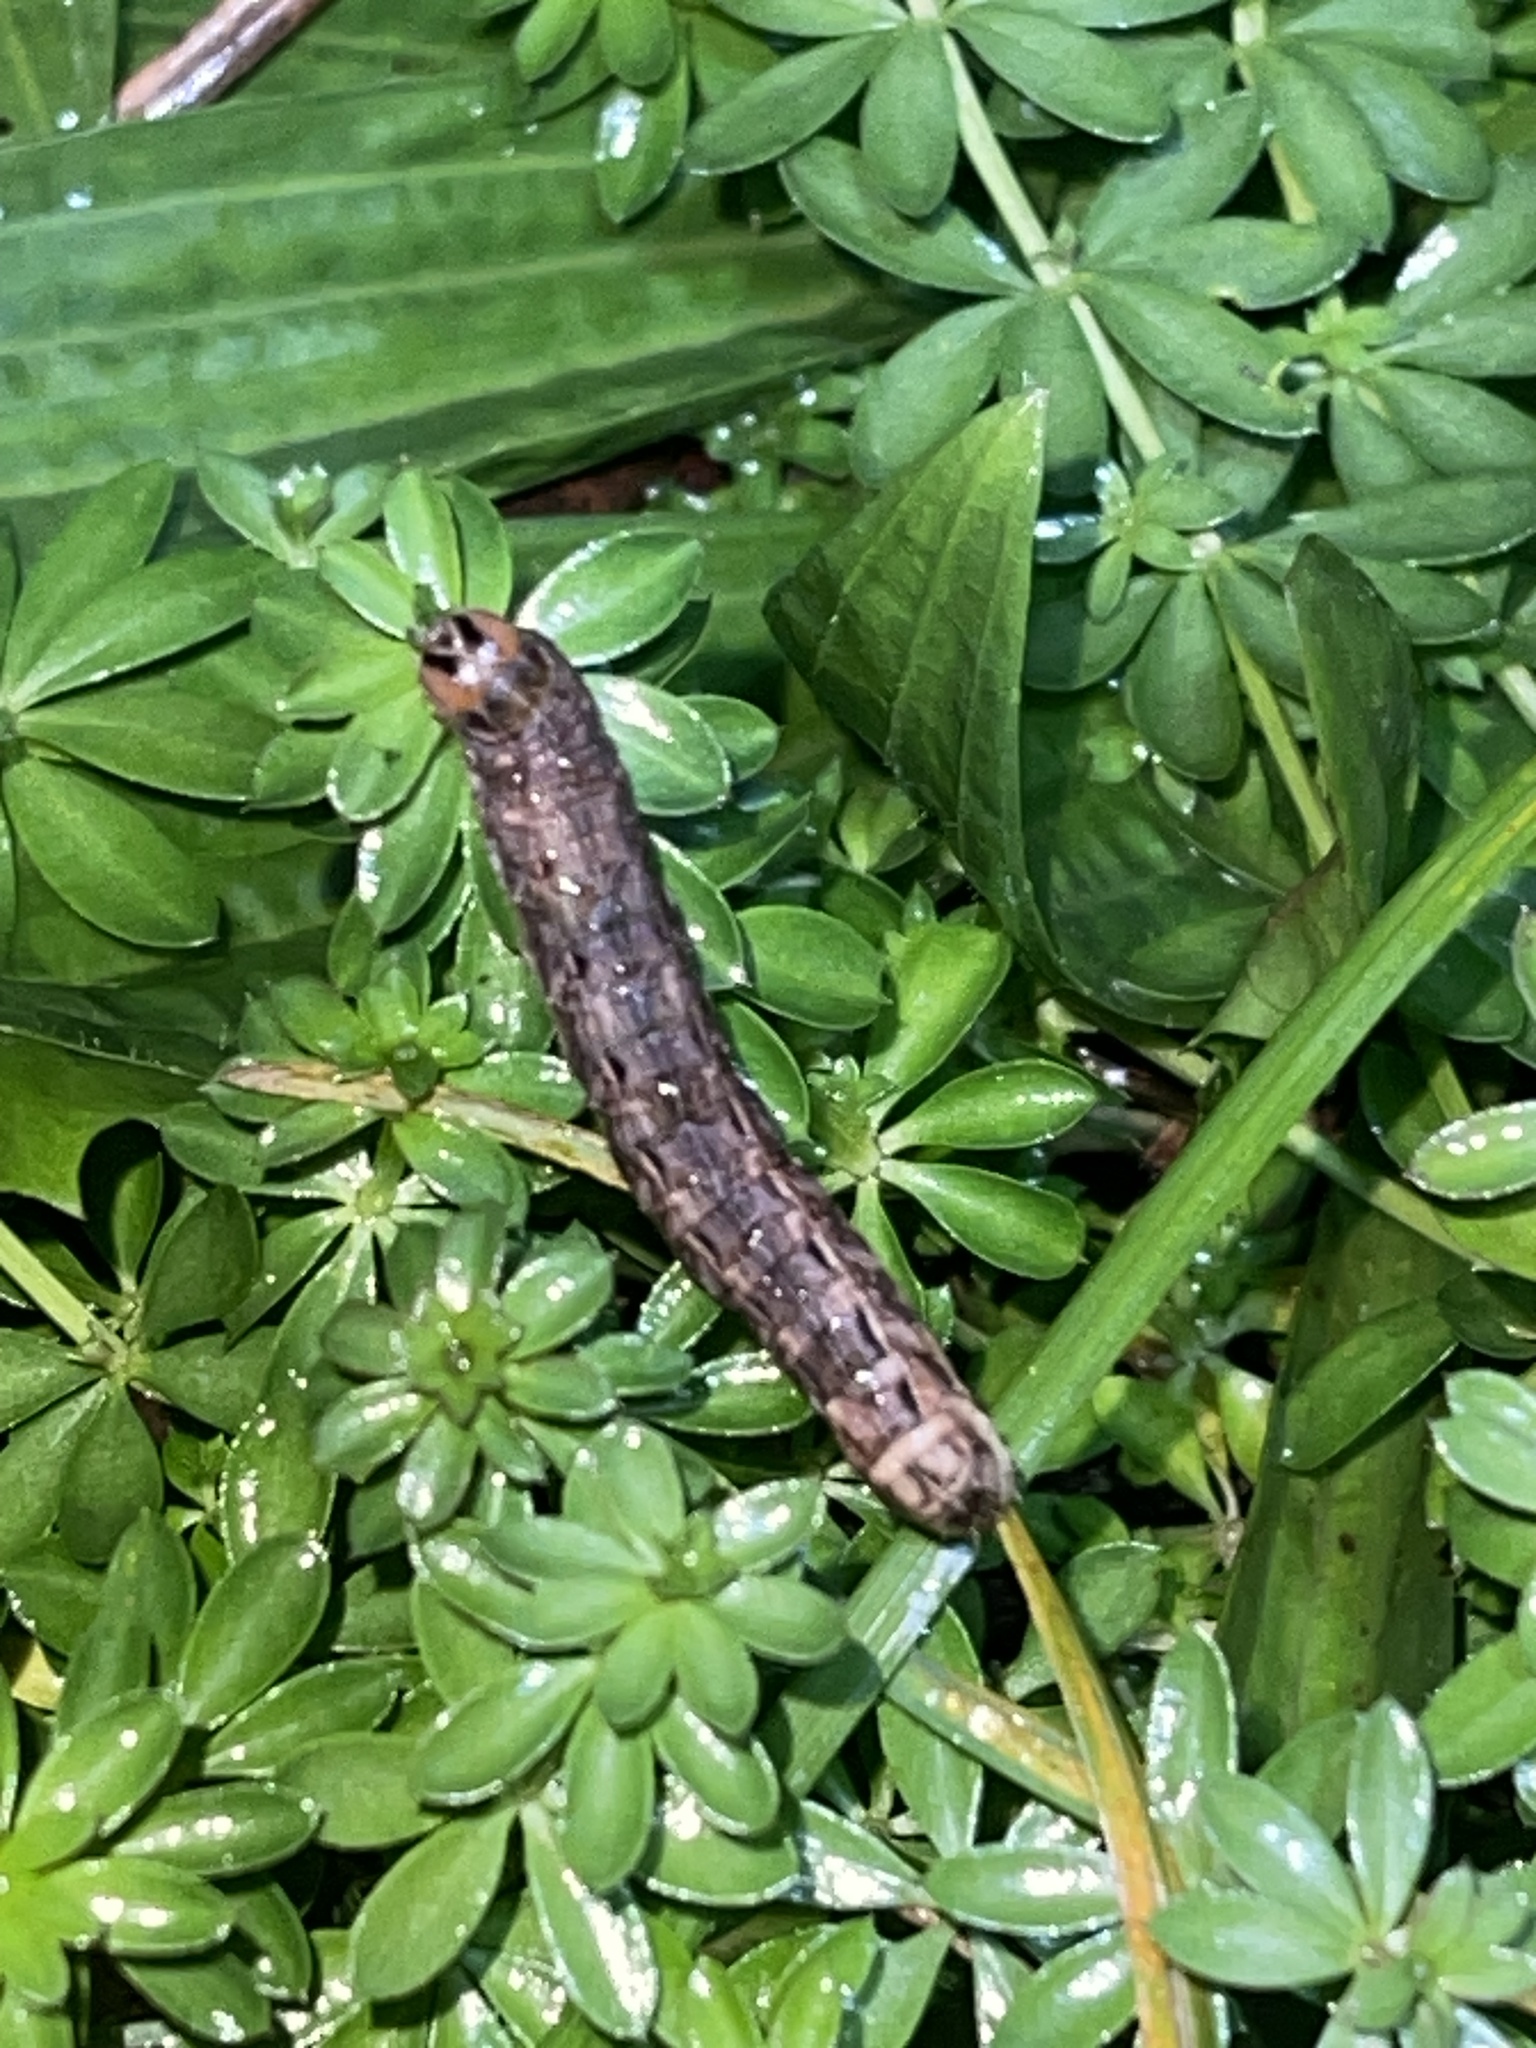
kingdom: Animalia
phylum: Arthropoda
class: Insecta
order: Lepidoptera
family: Noctuidae
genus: Noctua
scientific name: Noctua pronuba
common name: Large yellow underwing
